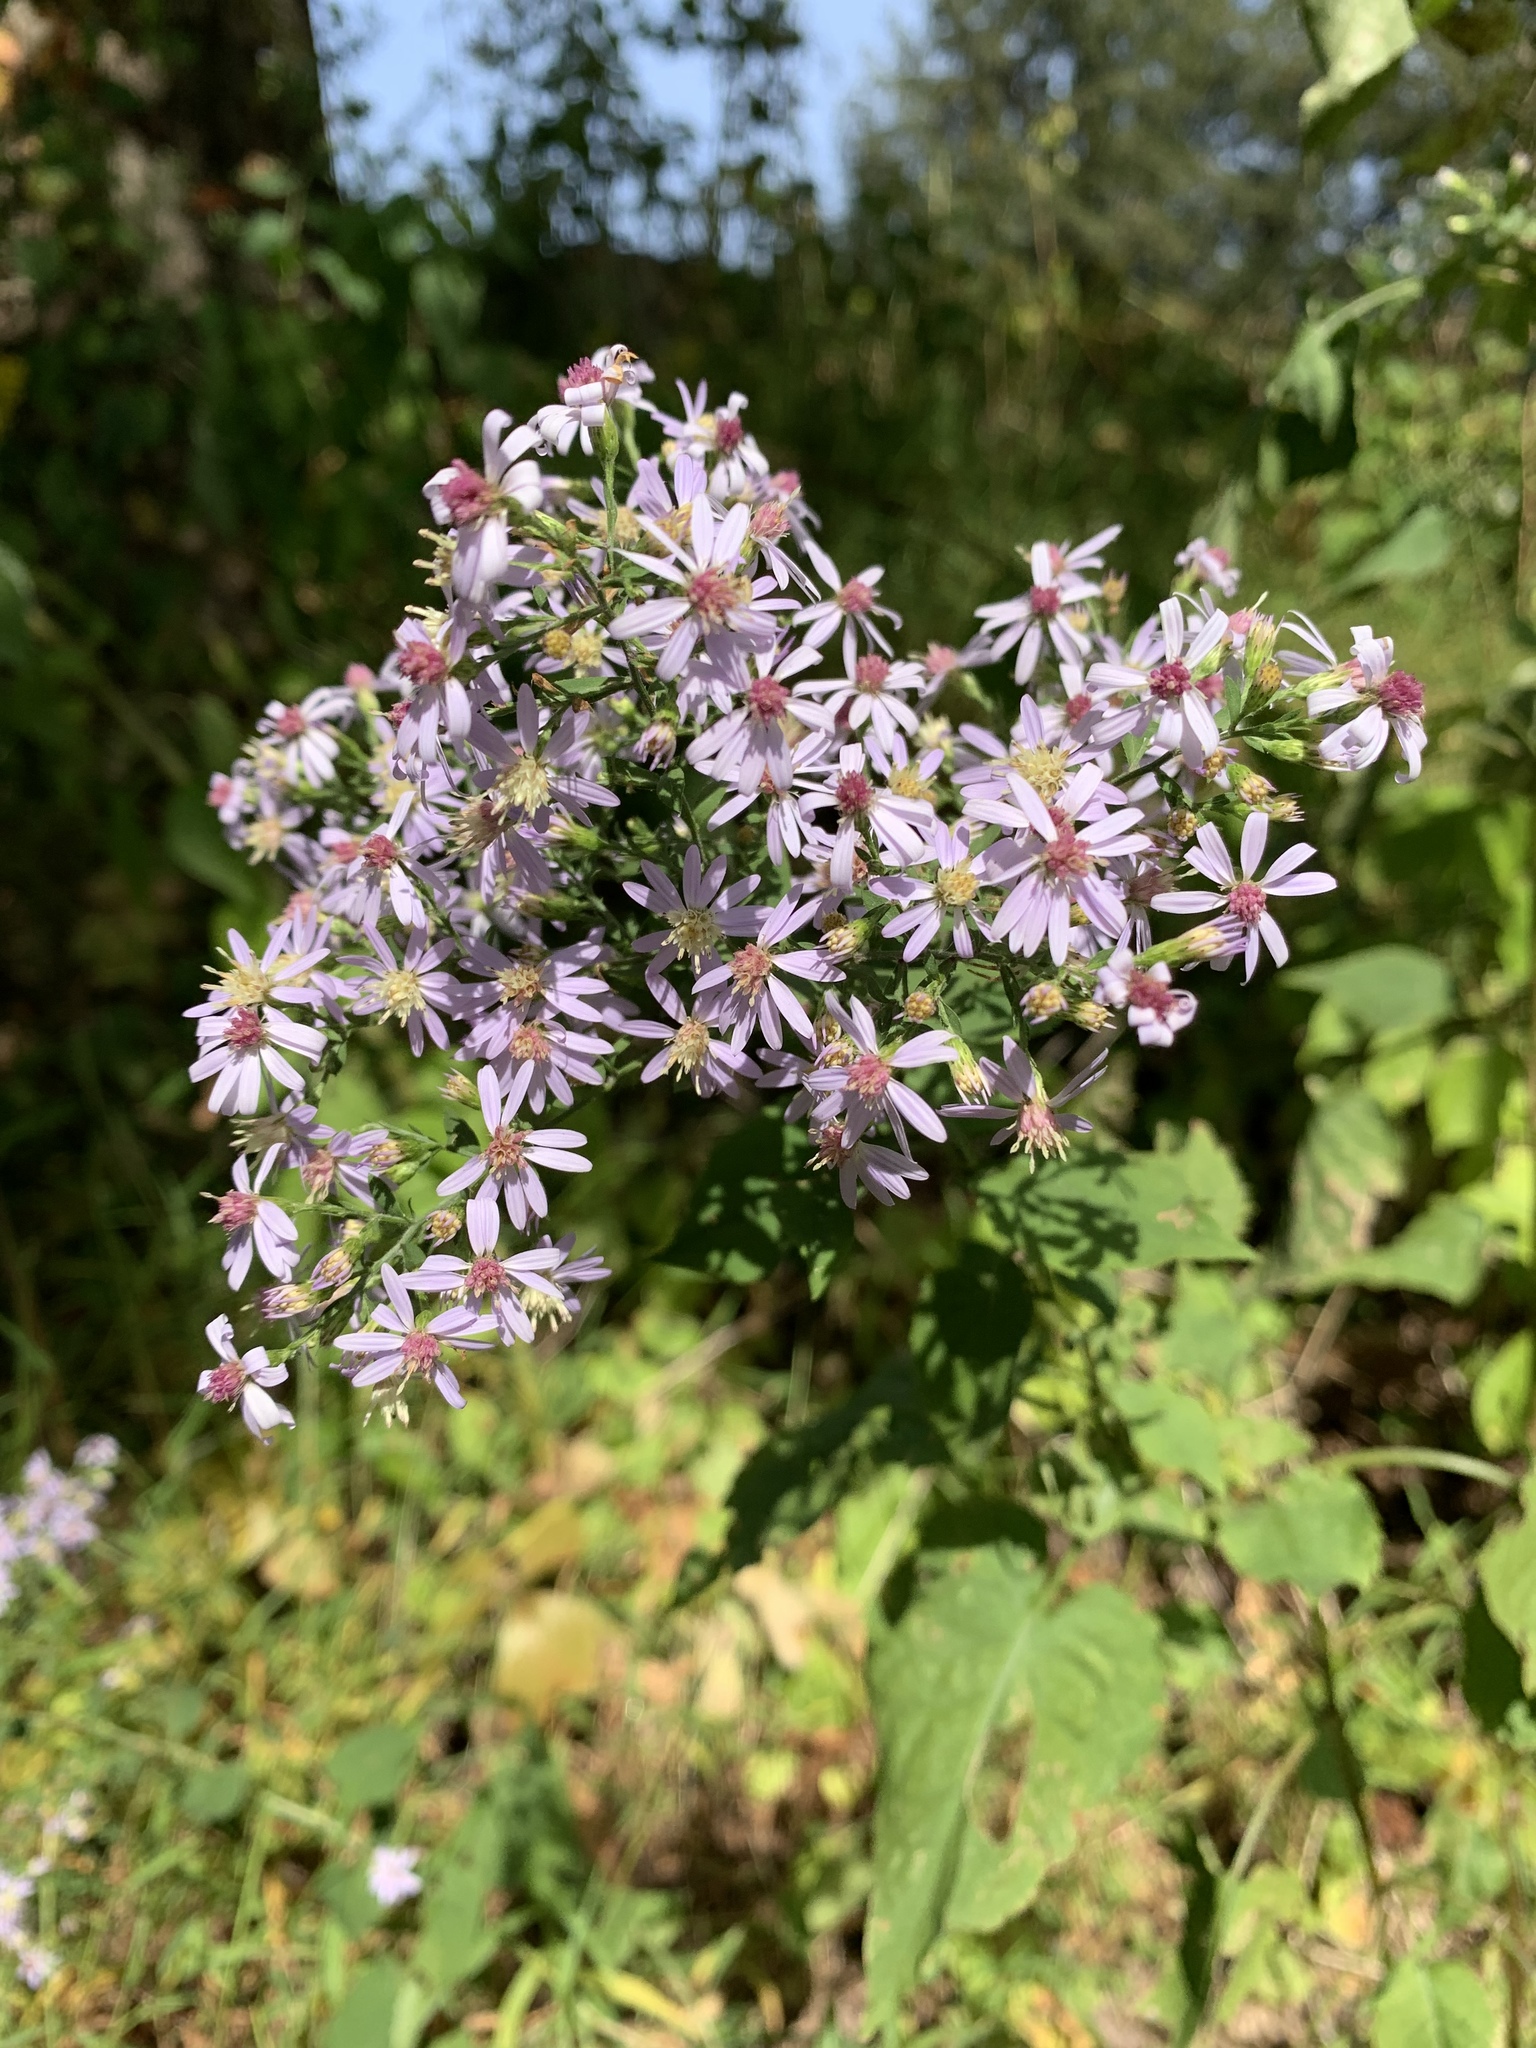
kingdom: Plantae
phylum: Tracheophyta
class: Magnoliopsida
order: Asterales
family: Asteraceae
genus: Symphyotrichum
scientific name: Symphyotrichum cordifolium
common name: Beeweed
